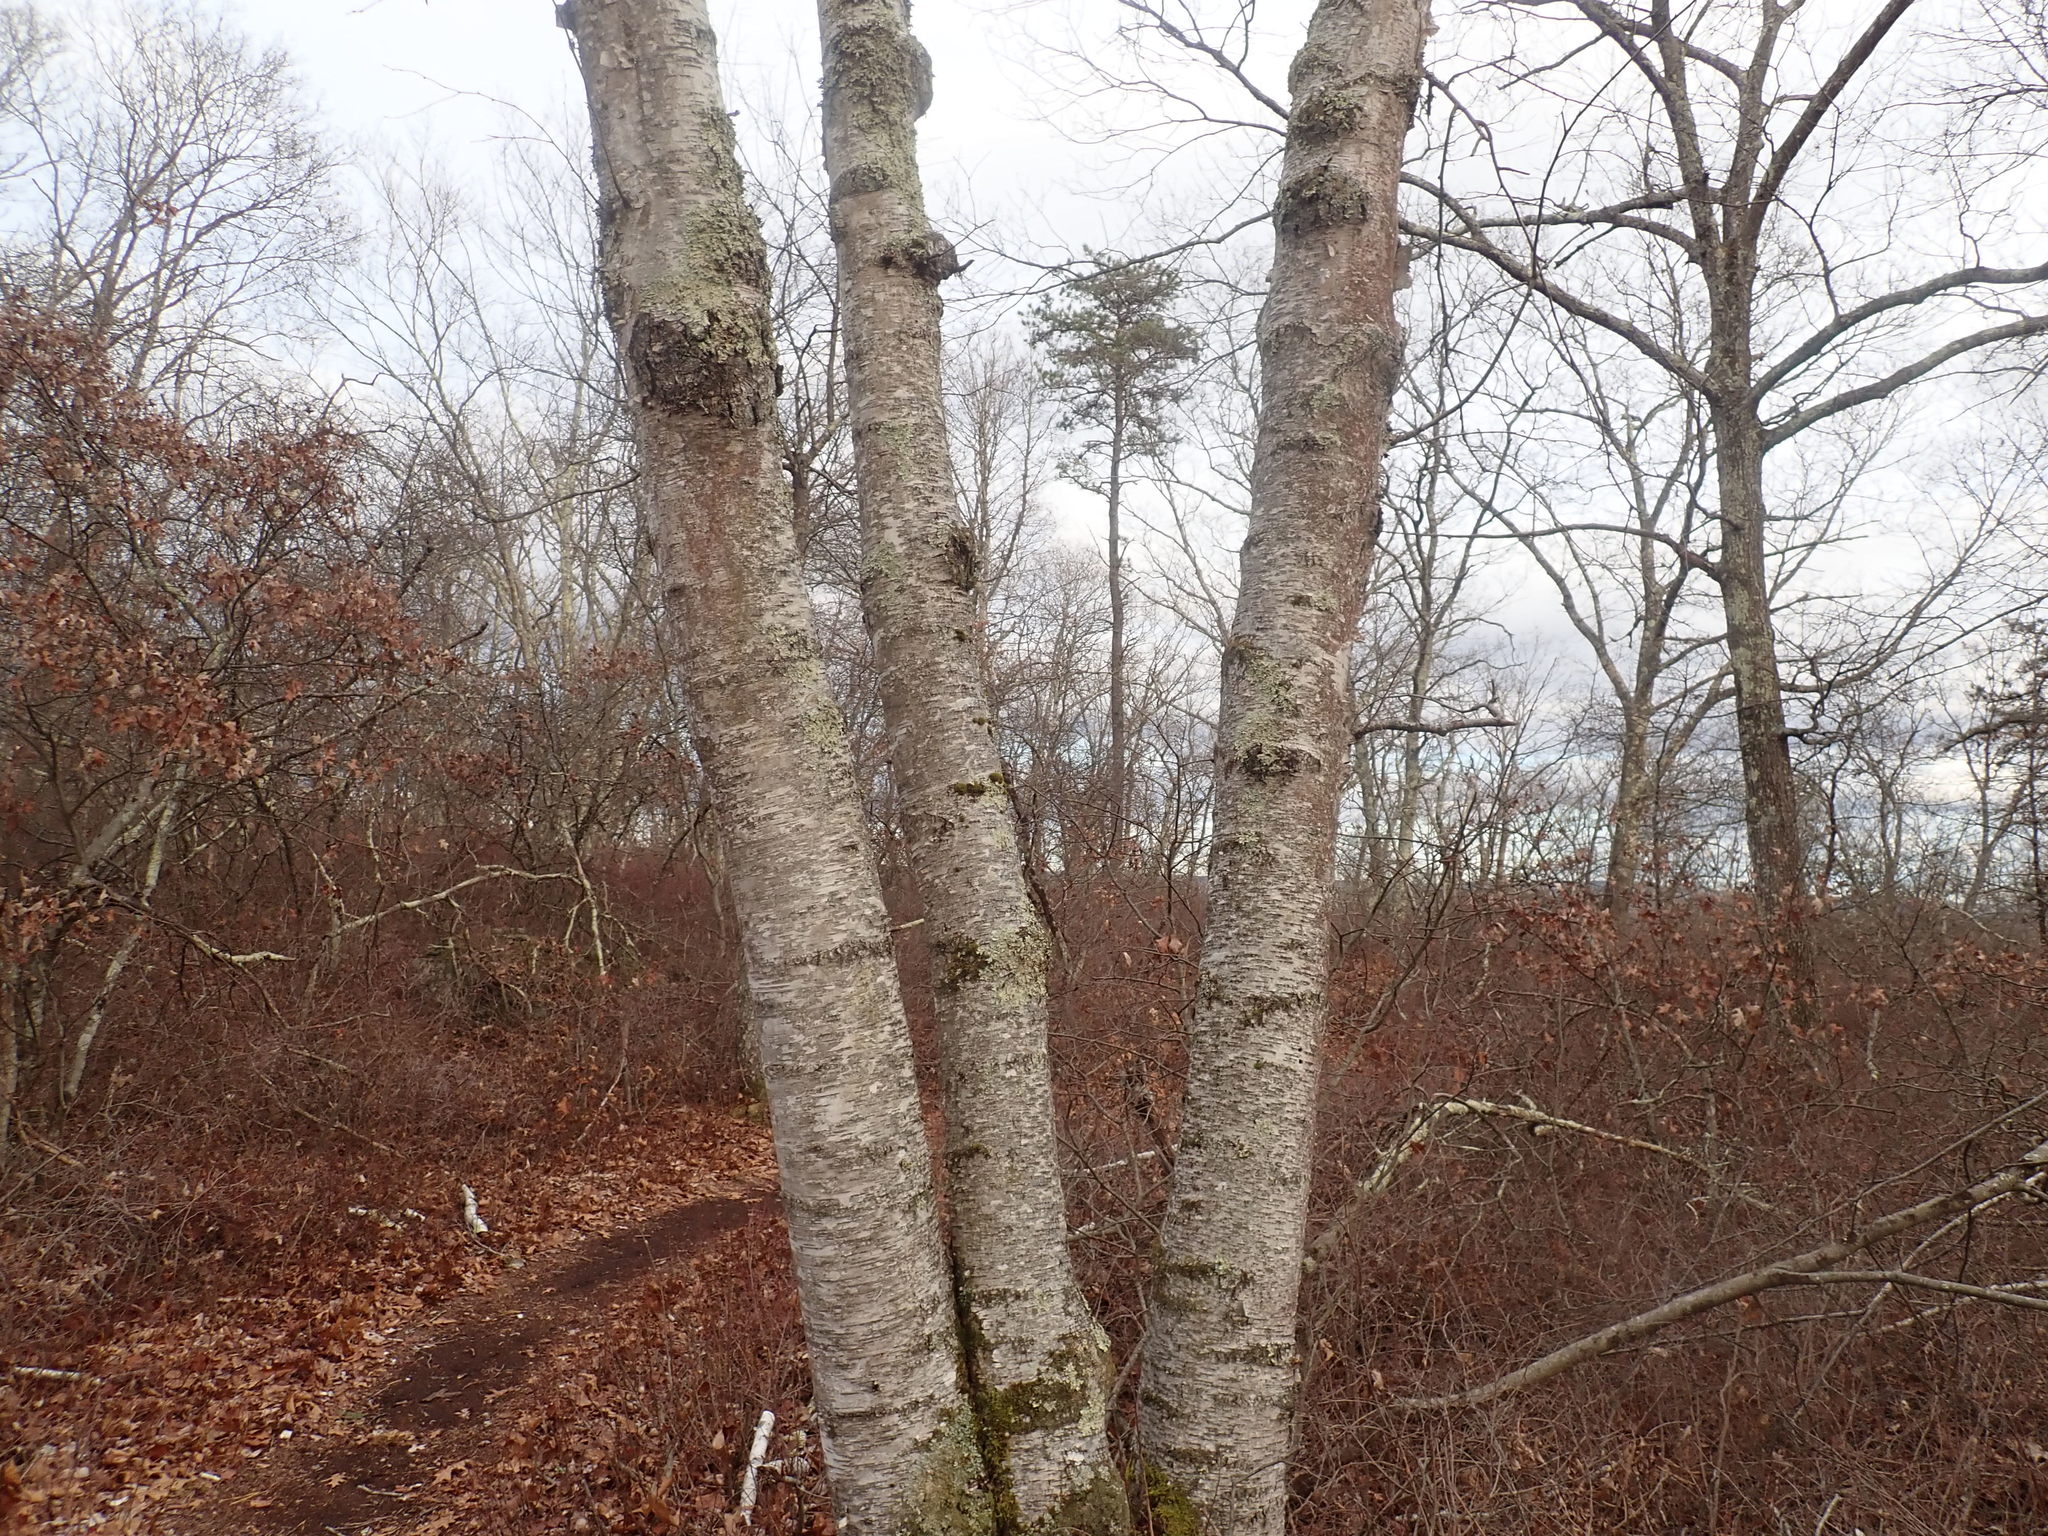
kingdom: Plantae
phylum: Tracheophyta
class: Magnoliopsida
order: Fagales
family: Betulaceae
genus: Betula
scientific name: Betula papyrifera
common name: Paper birch
